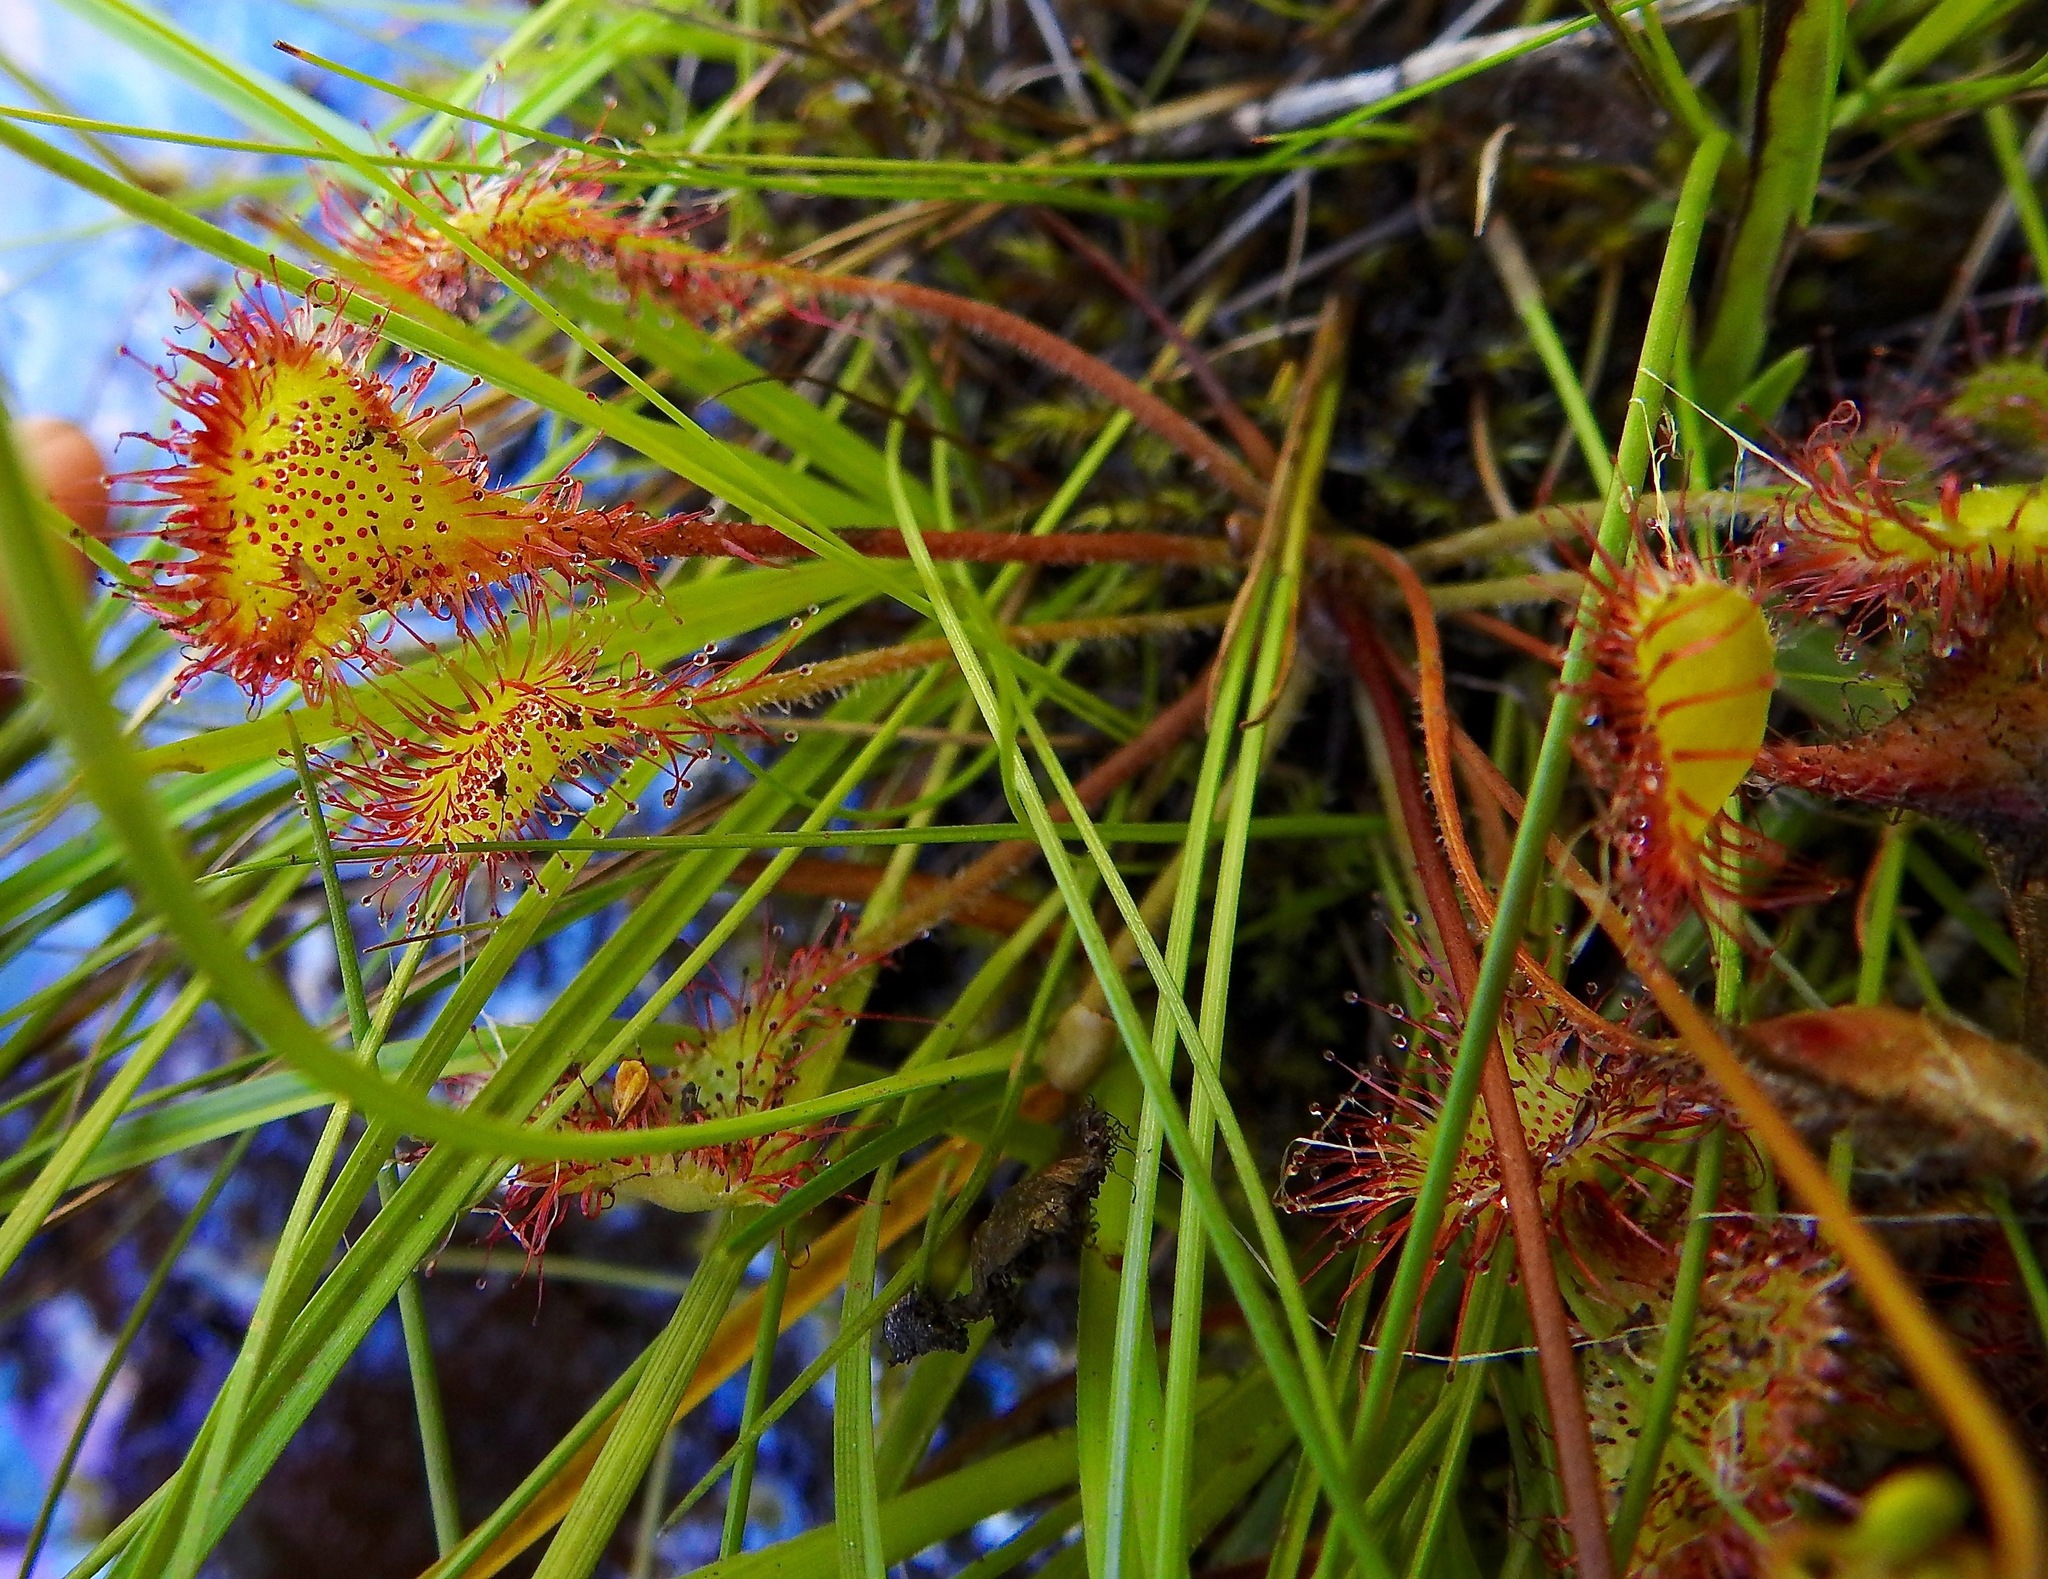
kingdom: Plantae
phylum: Tracheophyta
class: Magnoliopsida
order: Caryophyllales
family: Droseraceae
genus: Drosera
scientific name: Drosera rotundifolia
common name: Round-leaved sundew
